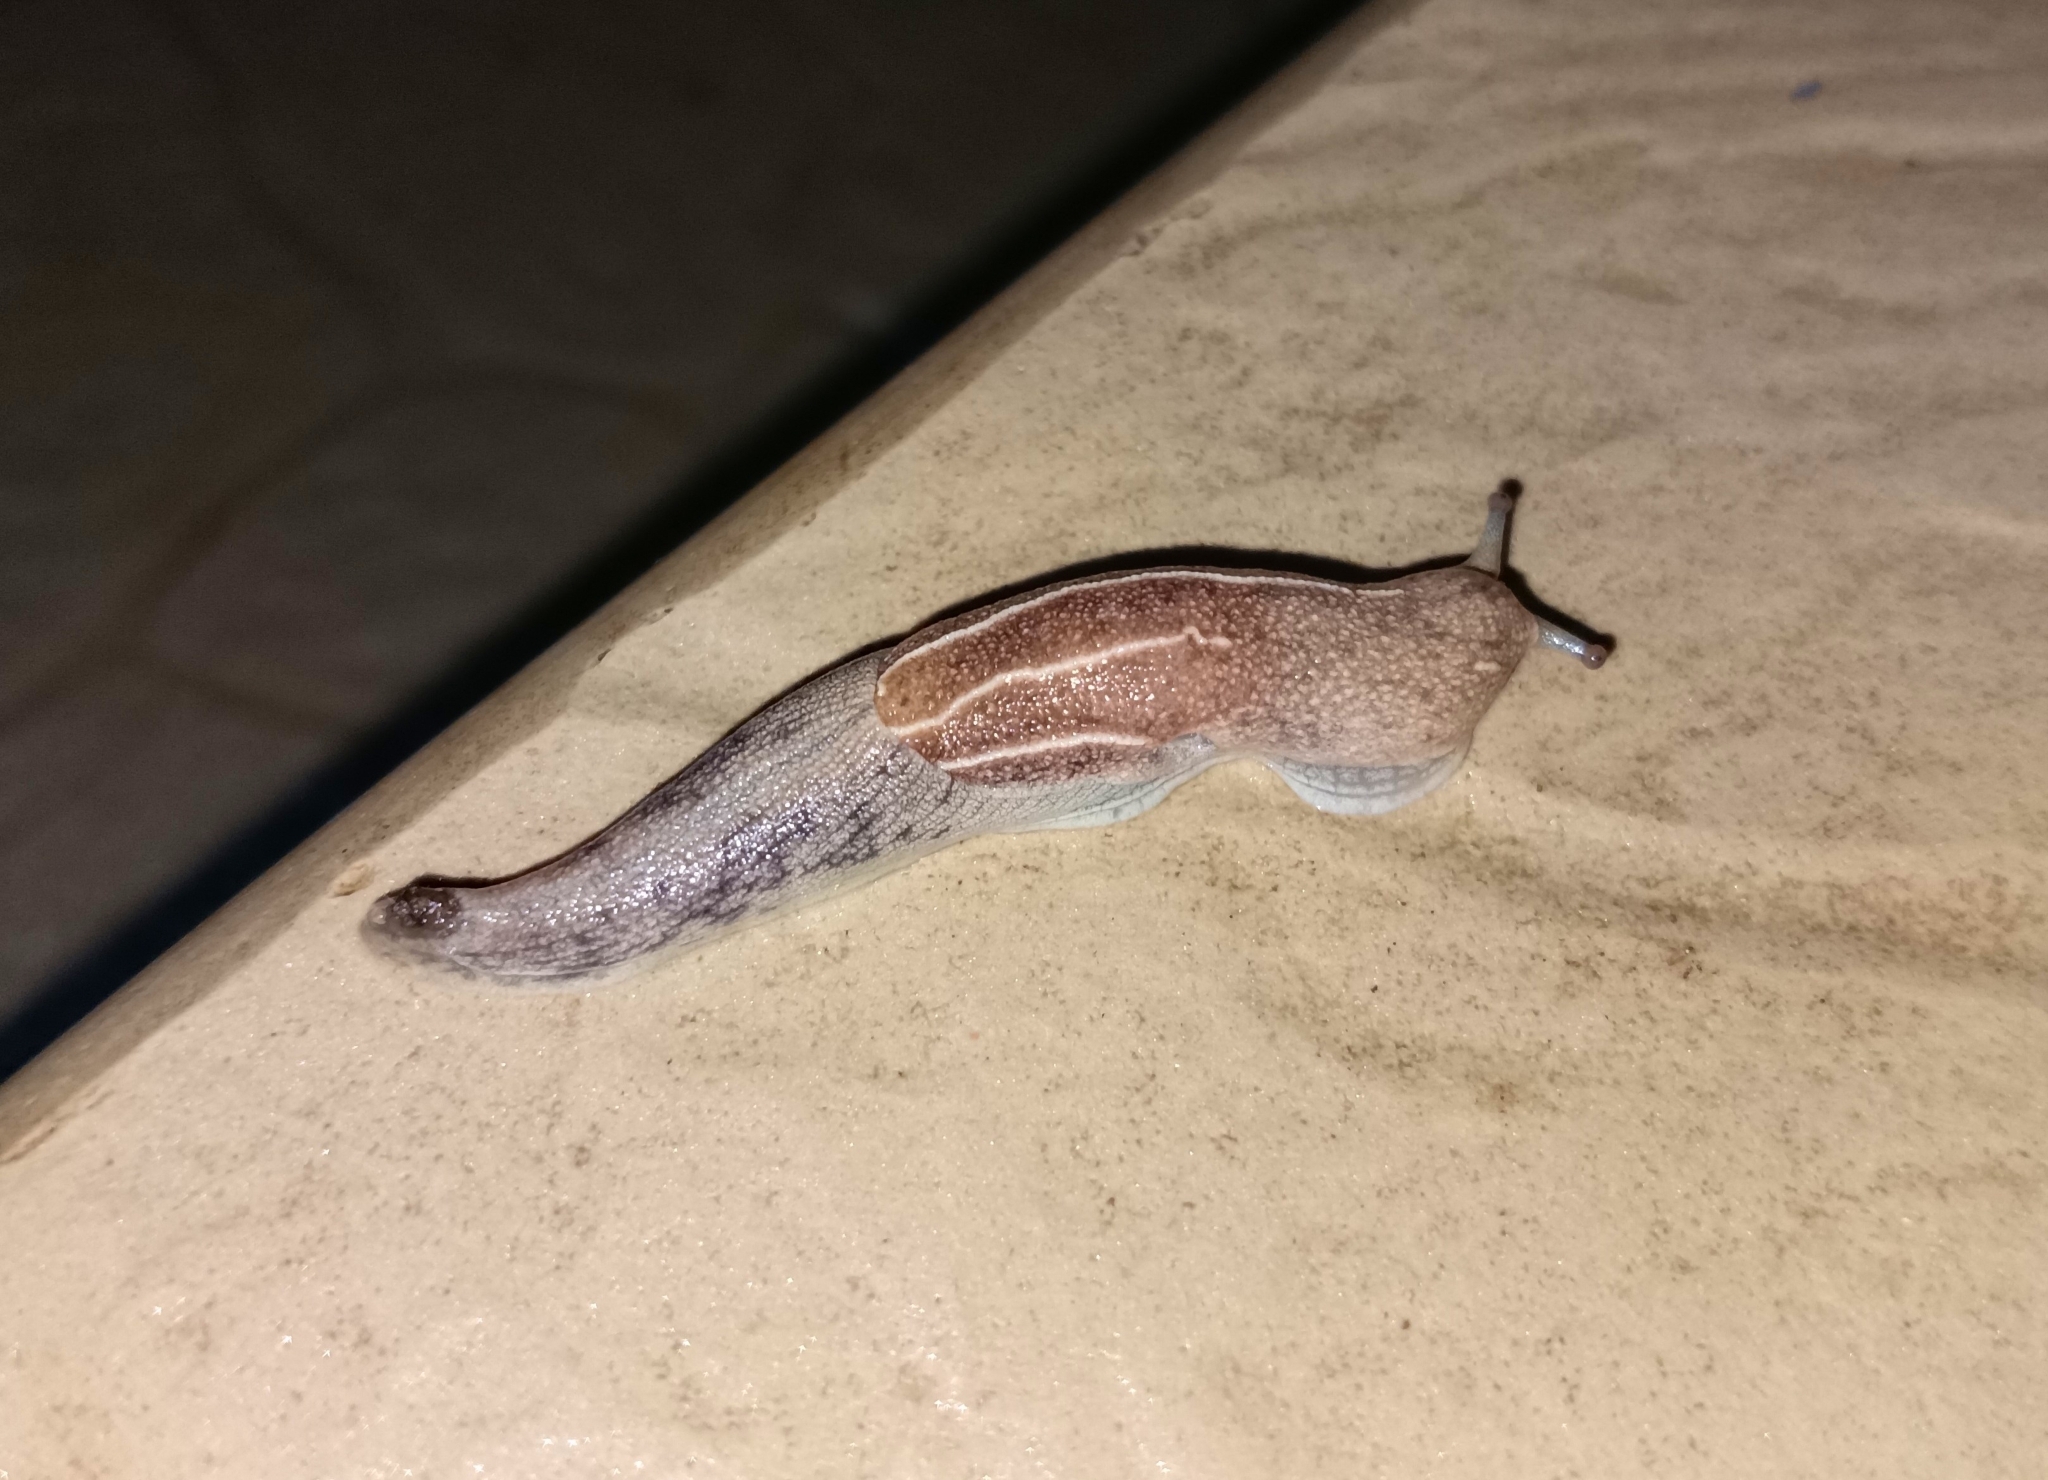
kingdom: Animalia
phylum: Mollusca
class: Gastropoda
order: Stylommatophora
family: Ariophantidae
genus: Mariaella
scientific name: Mariaella dussumieri
